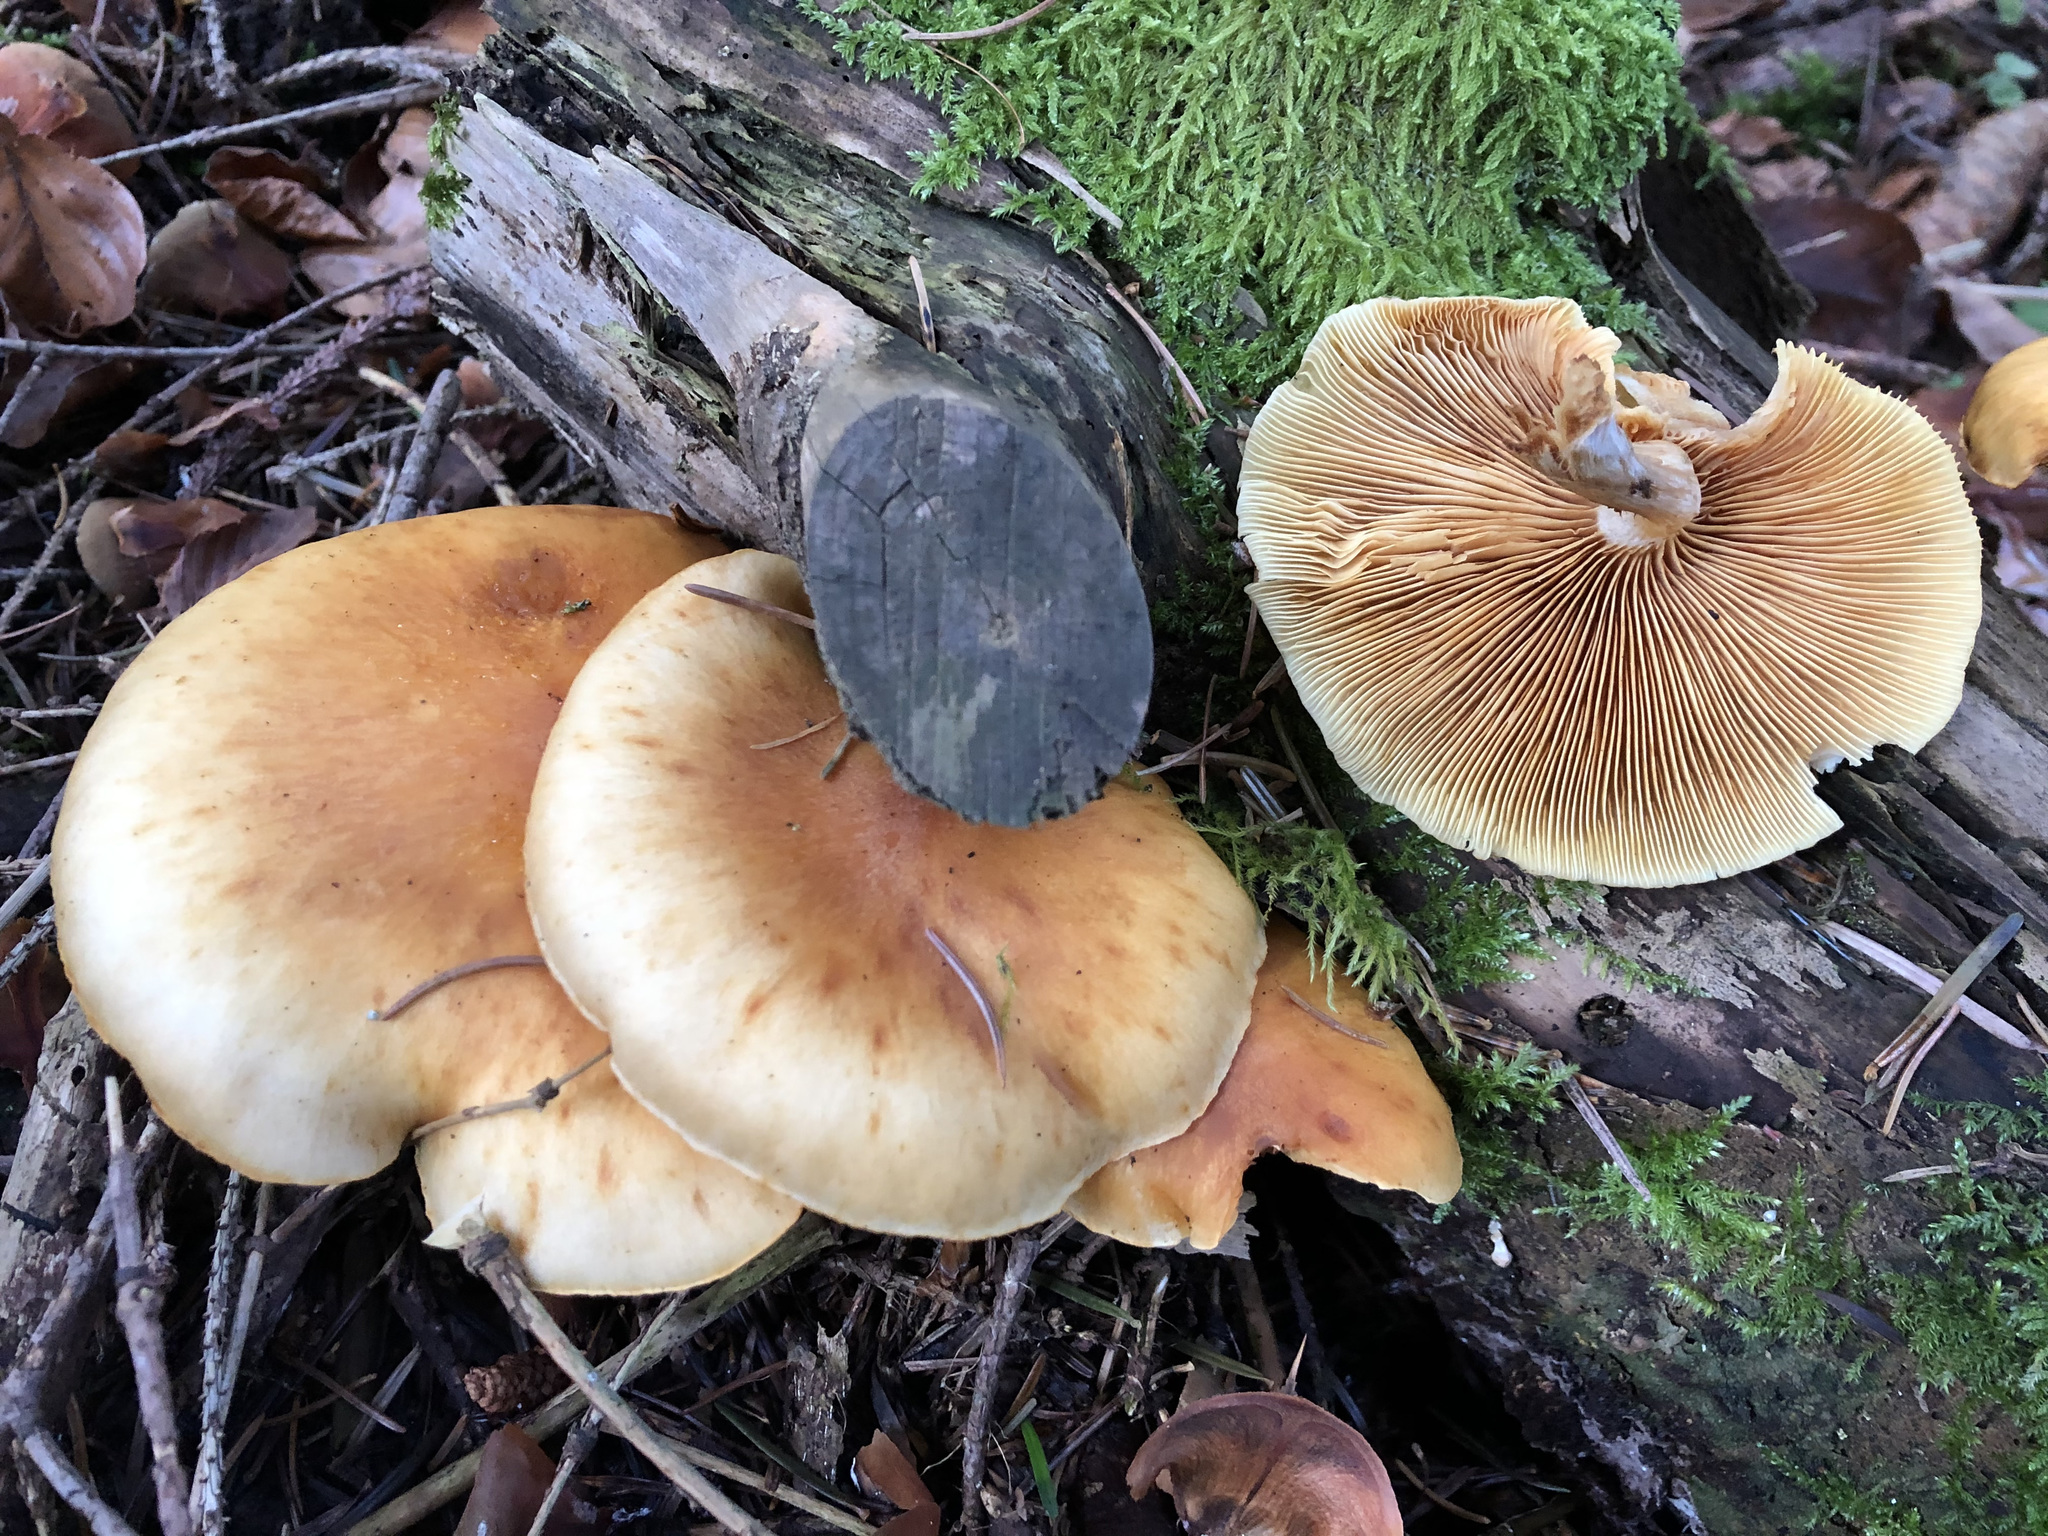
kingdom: Fungi
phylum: Basidiomycota
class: Agaricomycetes
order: Agaricales
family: Hymenogastraceae
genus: Gymnopilus
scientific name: Gymnopilus penetrans
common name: Common rustgill
